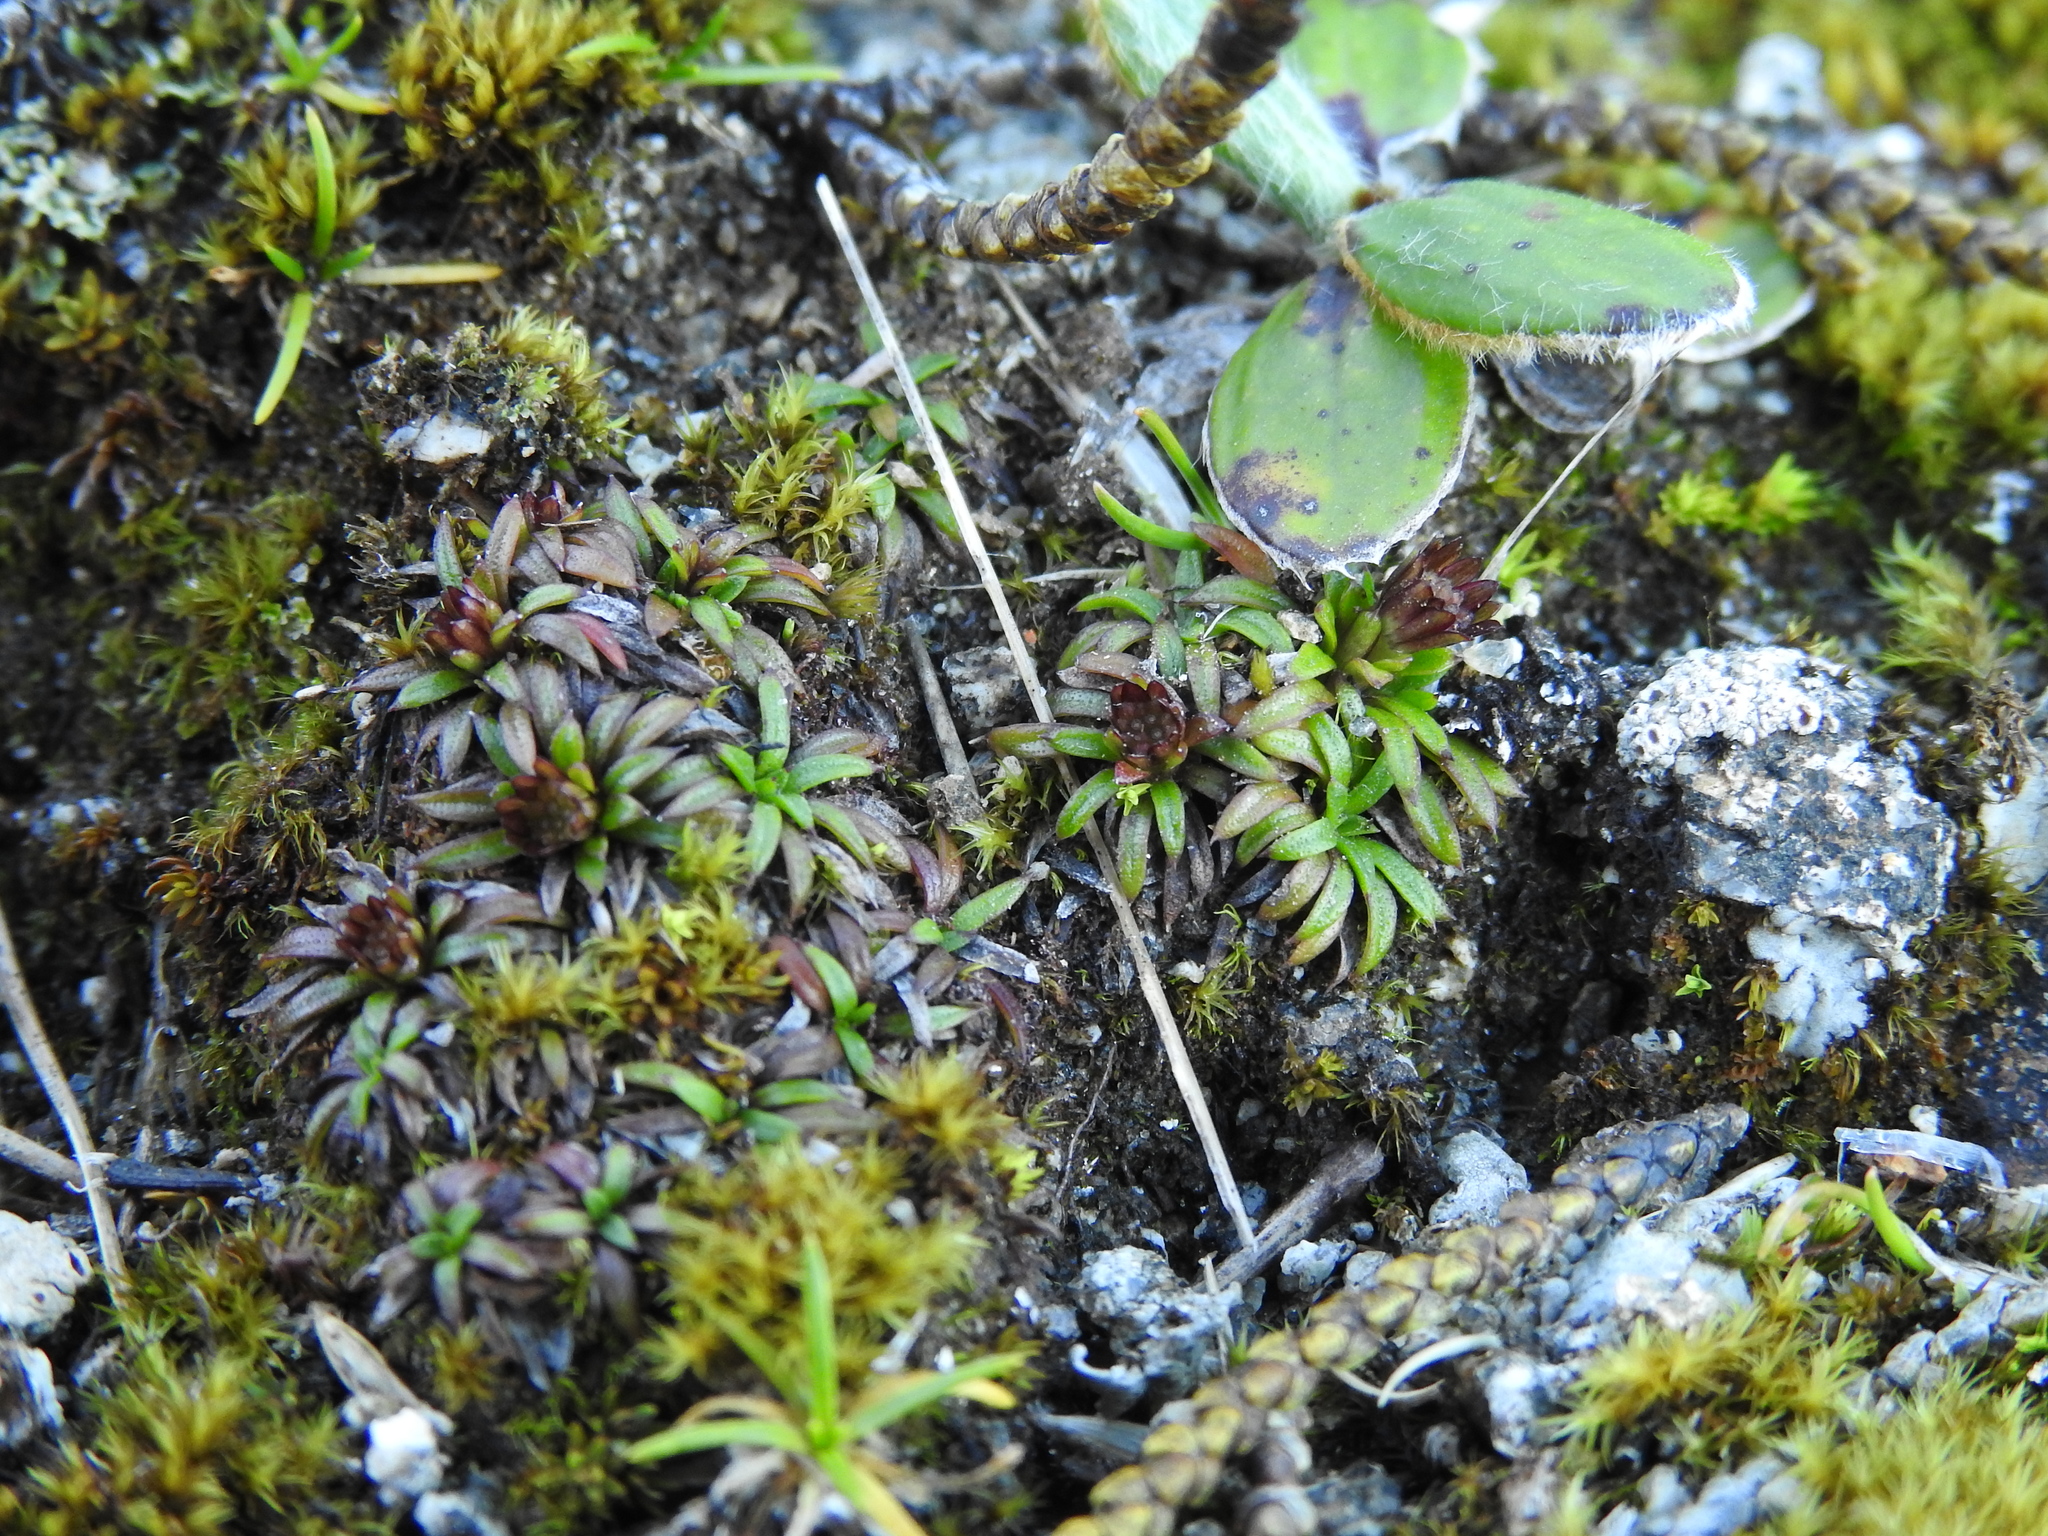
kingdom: Plantae
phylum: Tracheophyta
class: Magnoliopsida
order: Asterales
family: Asteraceae
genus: Abrotanella
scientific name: Abrotanella pusilla
